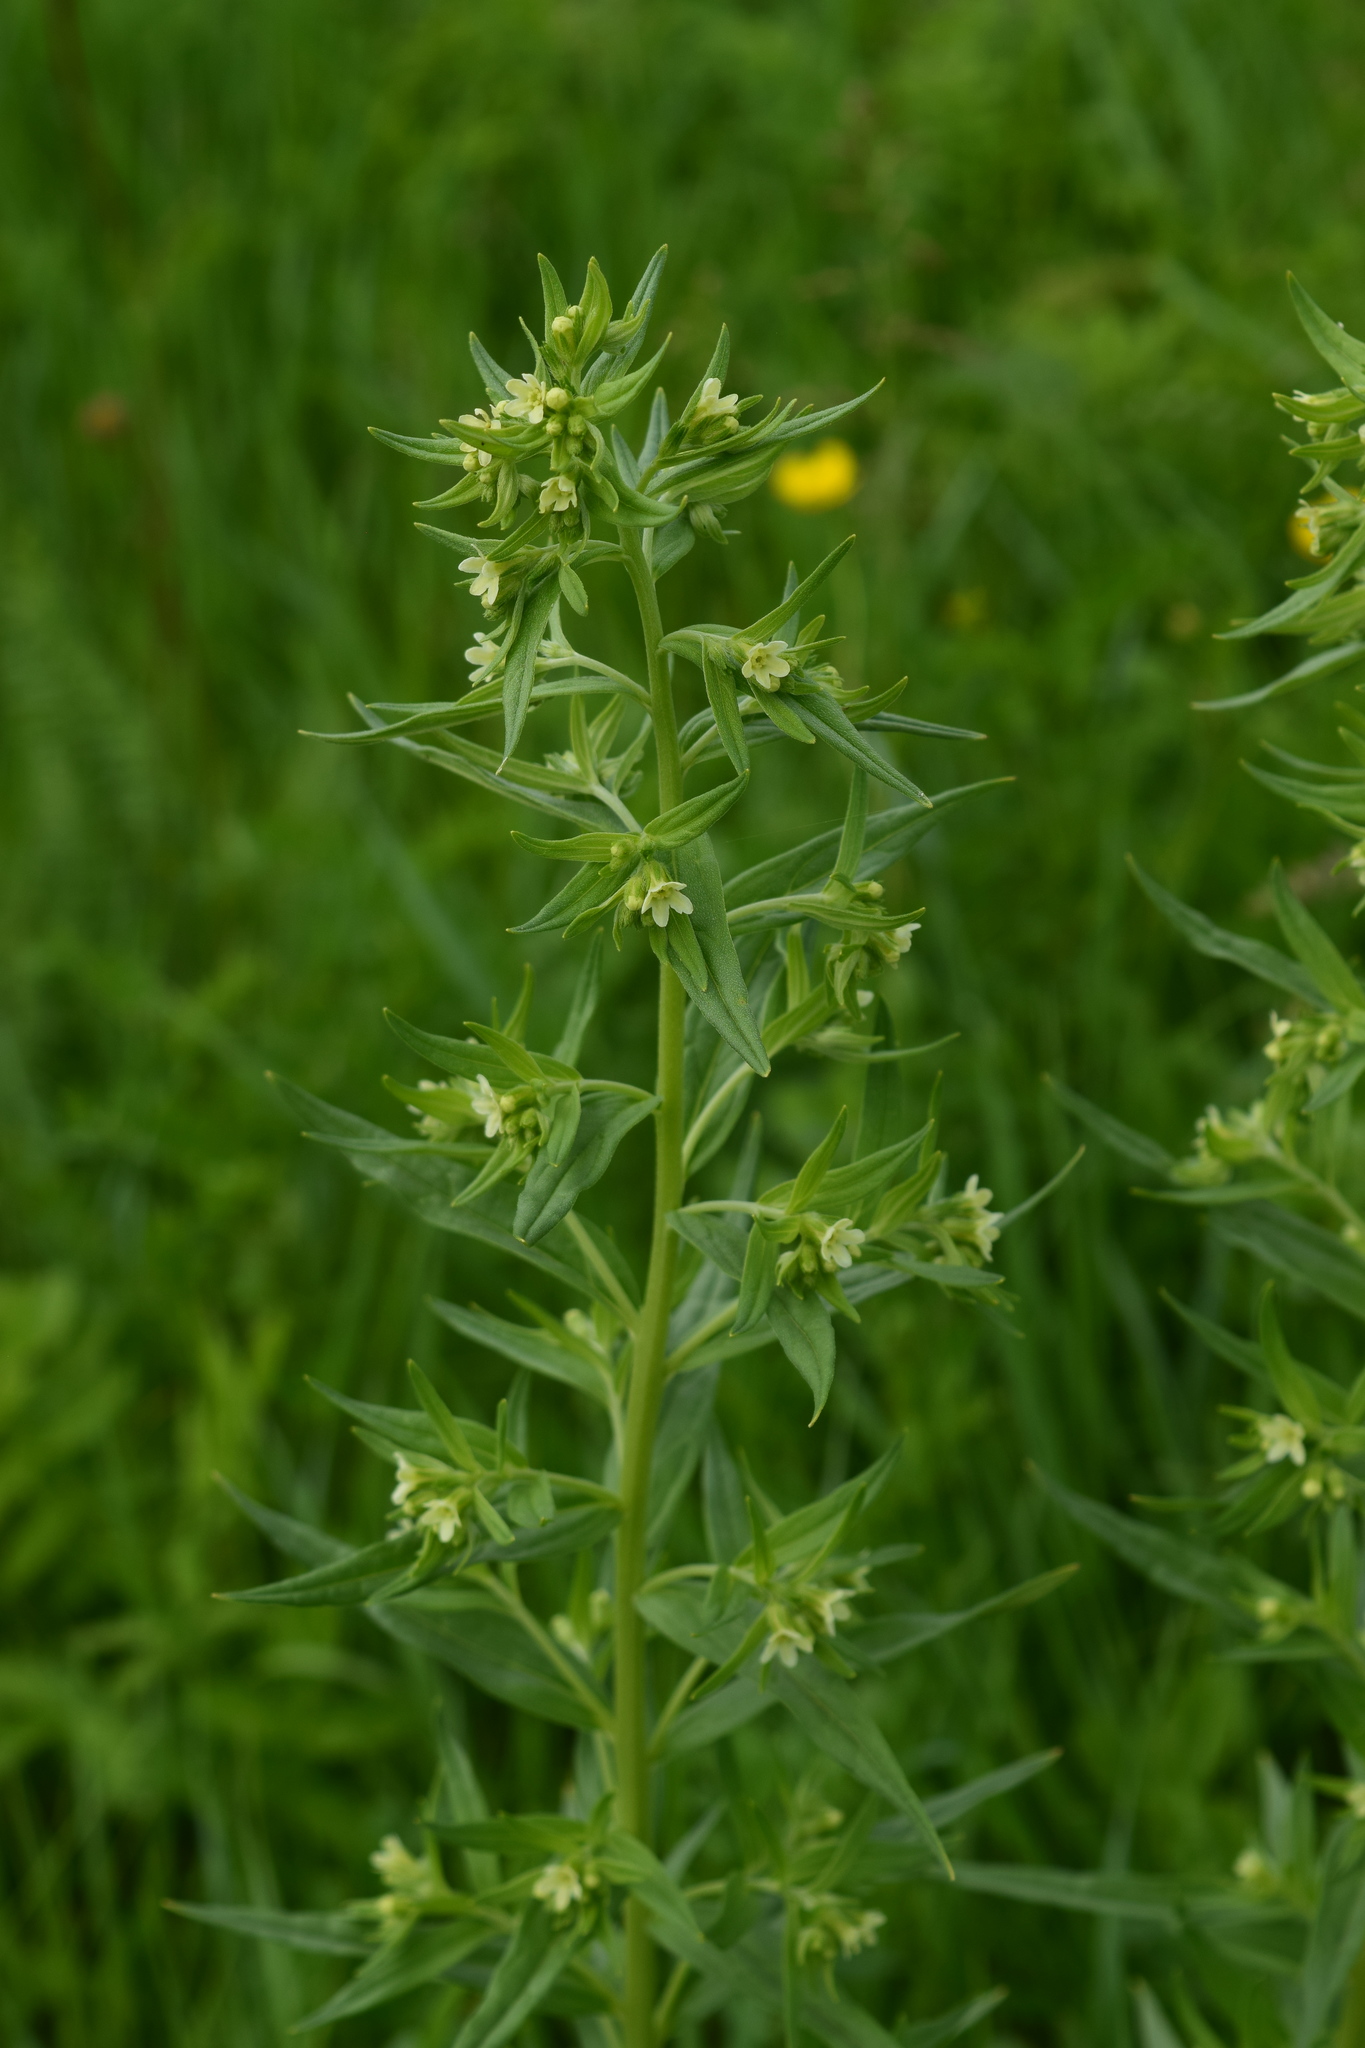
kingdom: Plantae
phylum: Tracheophyta
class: Magnoliopsida
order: Boraginales
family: Boraginaceae
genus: Lithospermum
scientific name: Lithospermum officinale
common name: Common gromwell
